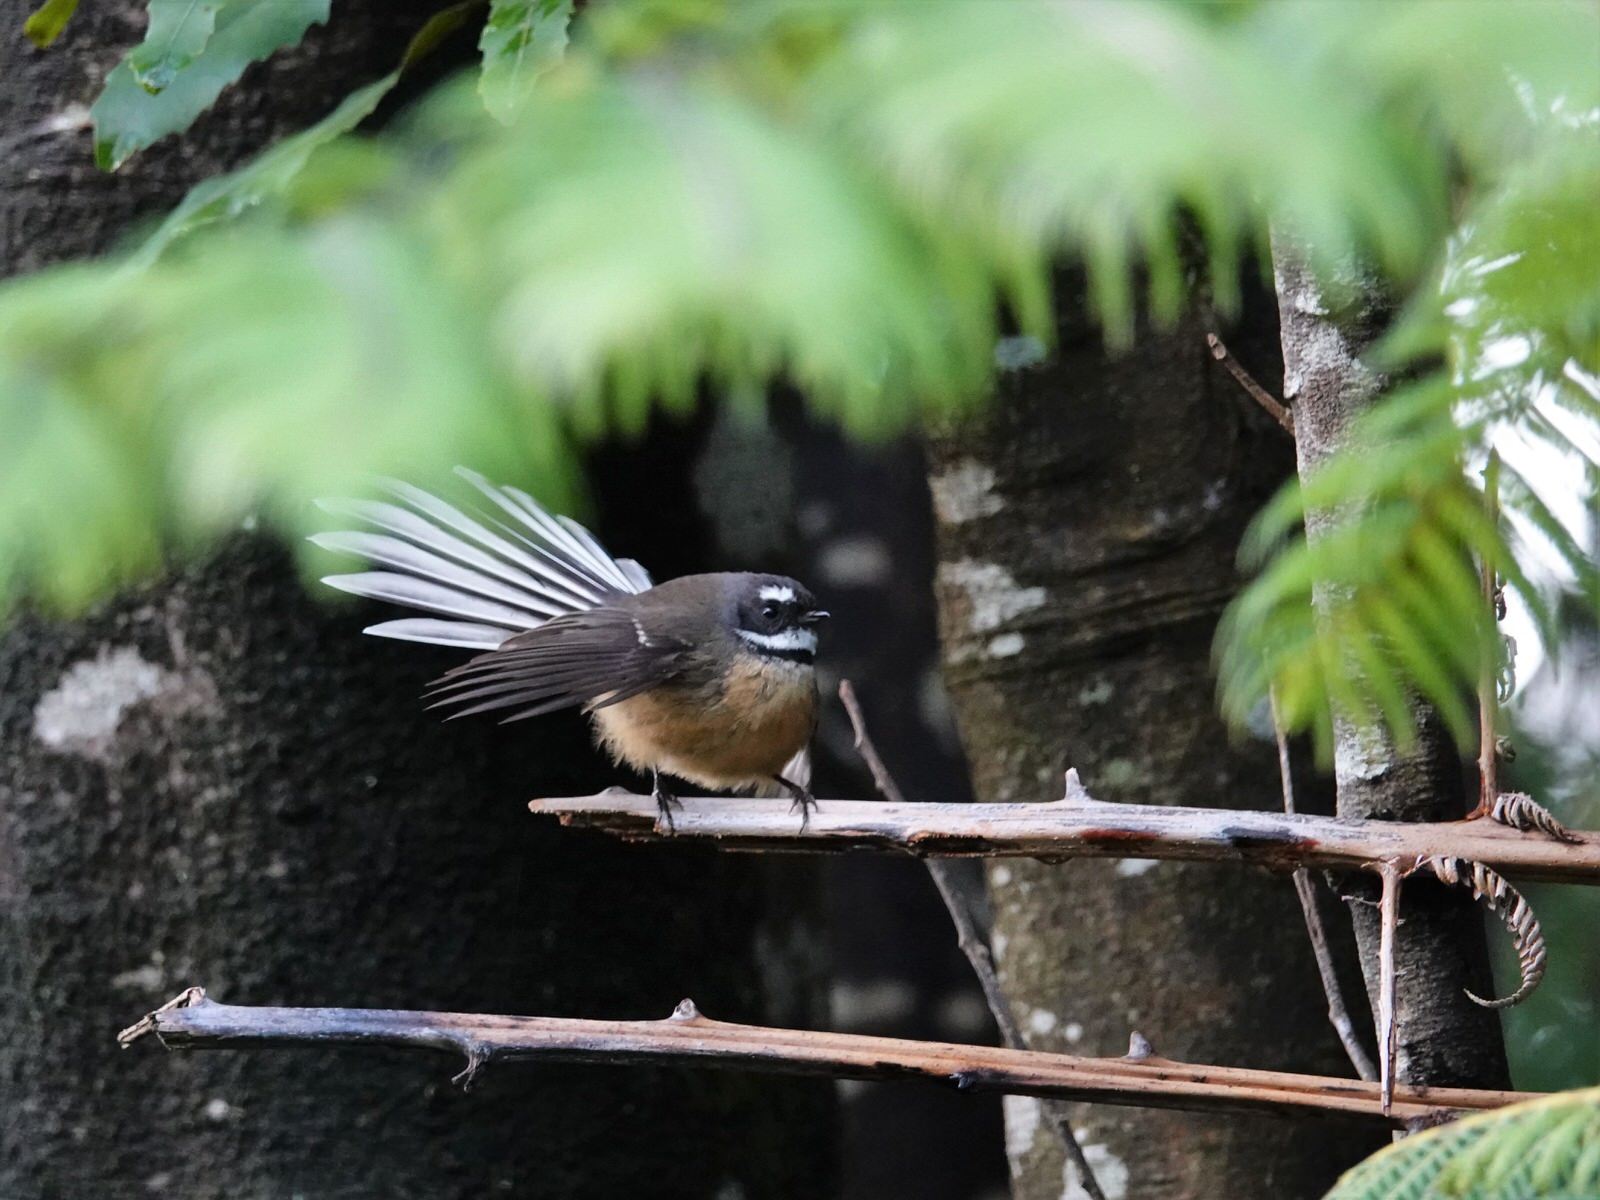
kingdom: Animalia
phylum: Chordata
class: Aves
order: Passeriformes
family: Rhipiduridae
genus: Rhipidura
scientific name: Rhipidura fuliginosa
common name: New zealand fantail
